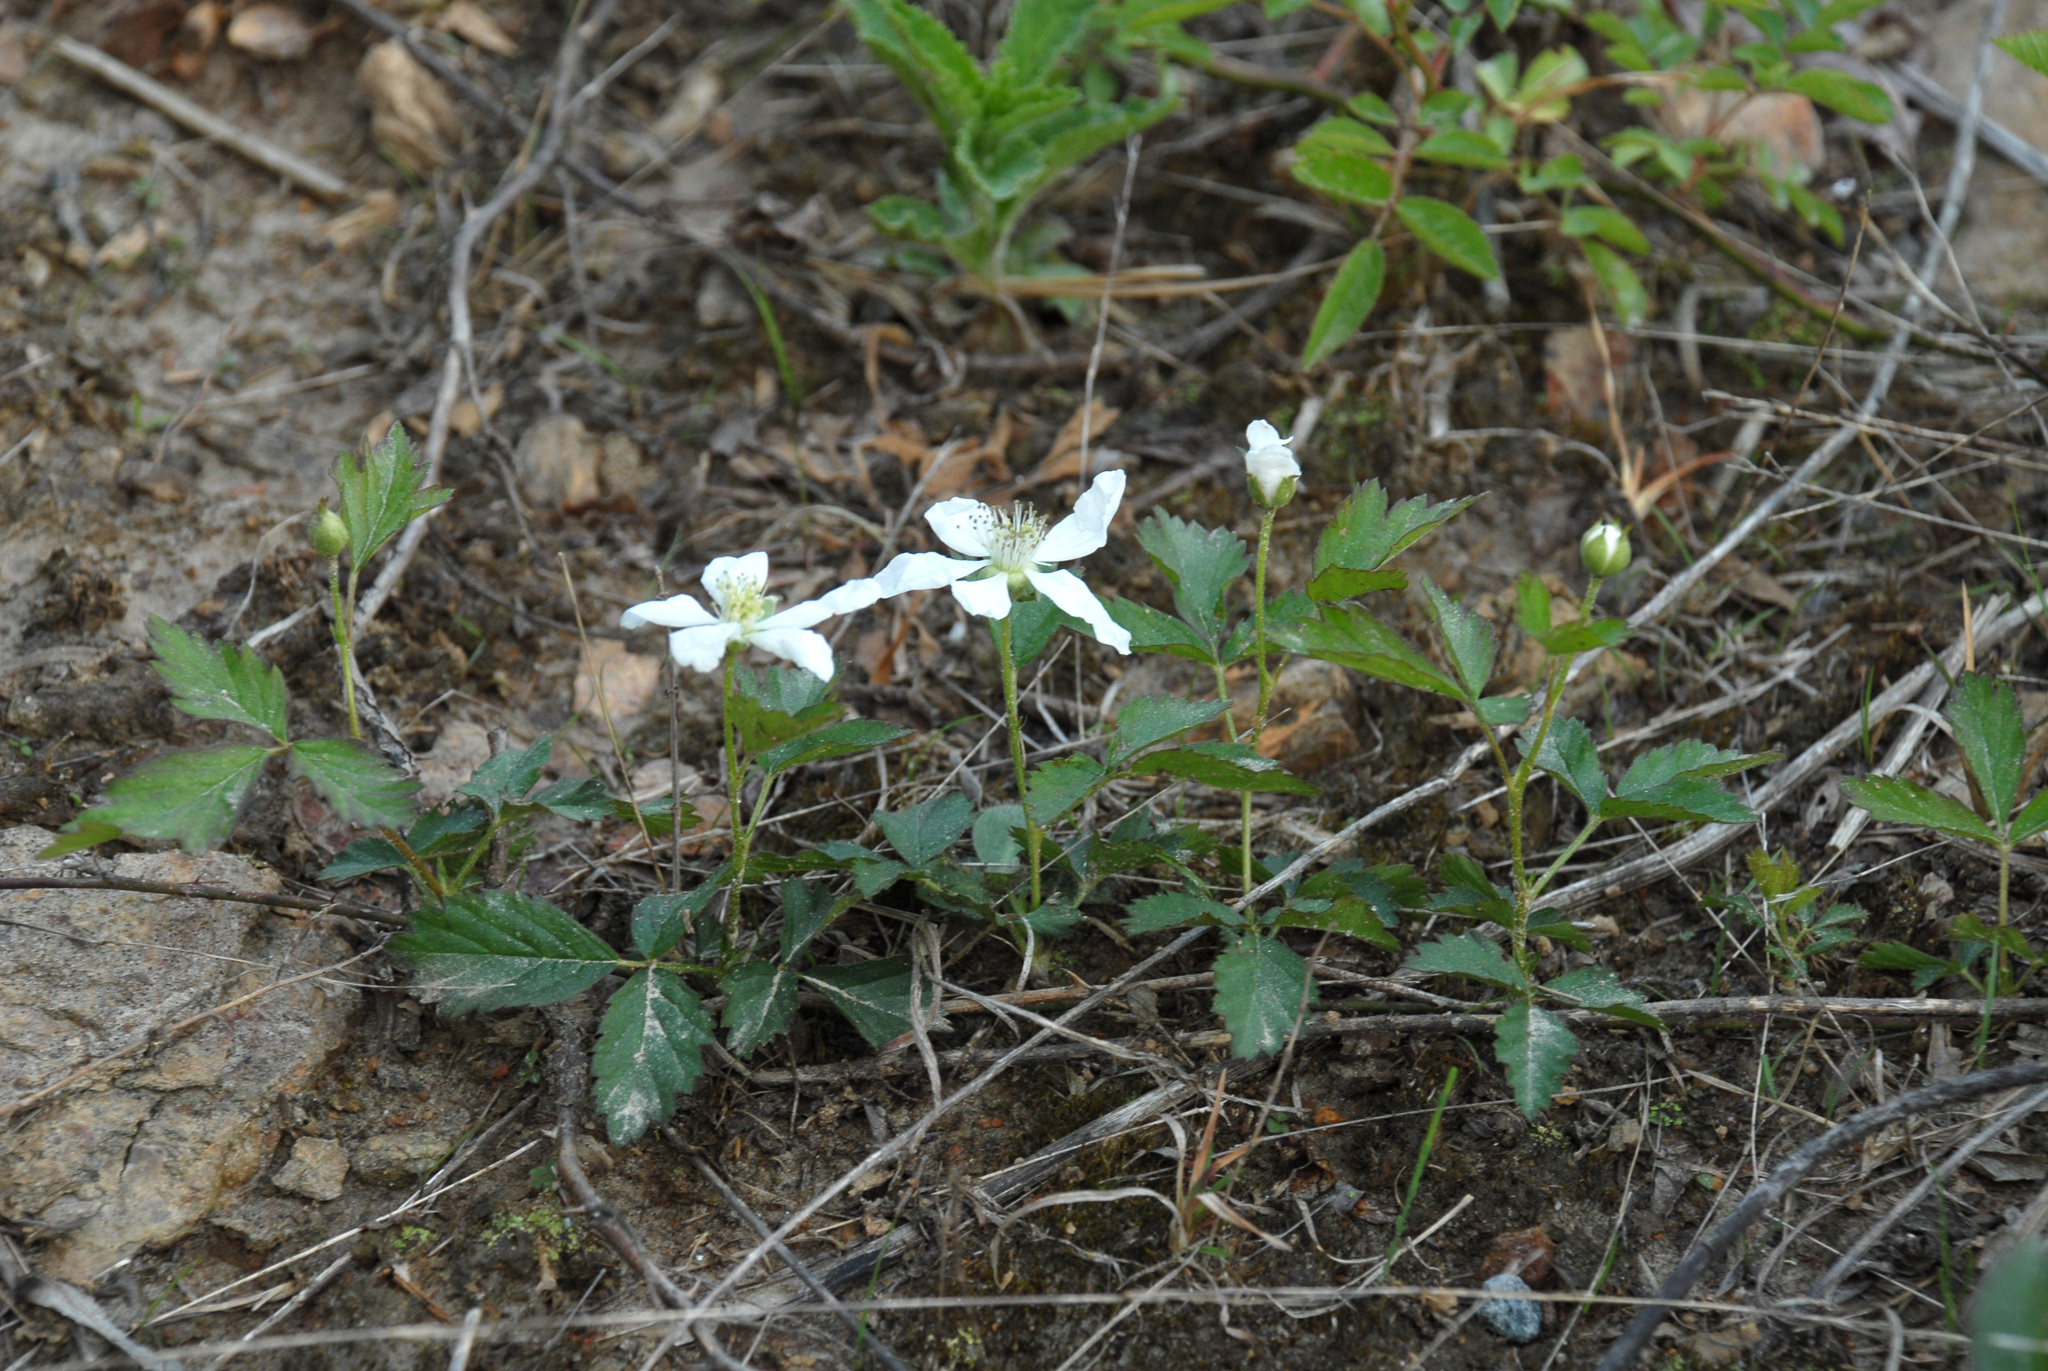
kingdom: Plantae
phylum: Tracheophyta
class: Magnoliopsida
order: Rosales
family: Rosaceae
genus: Rubus
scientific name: Rubus flagellaris
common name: American dewberry
